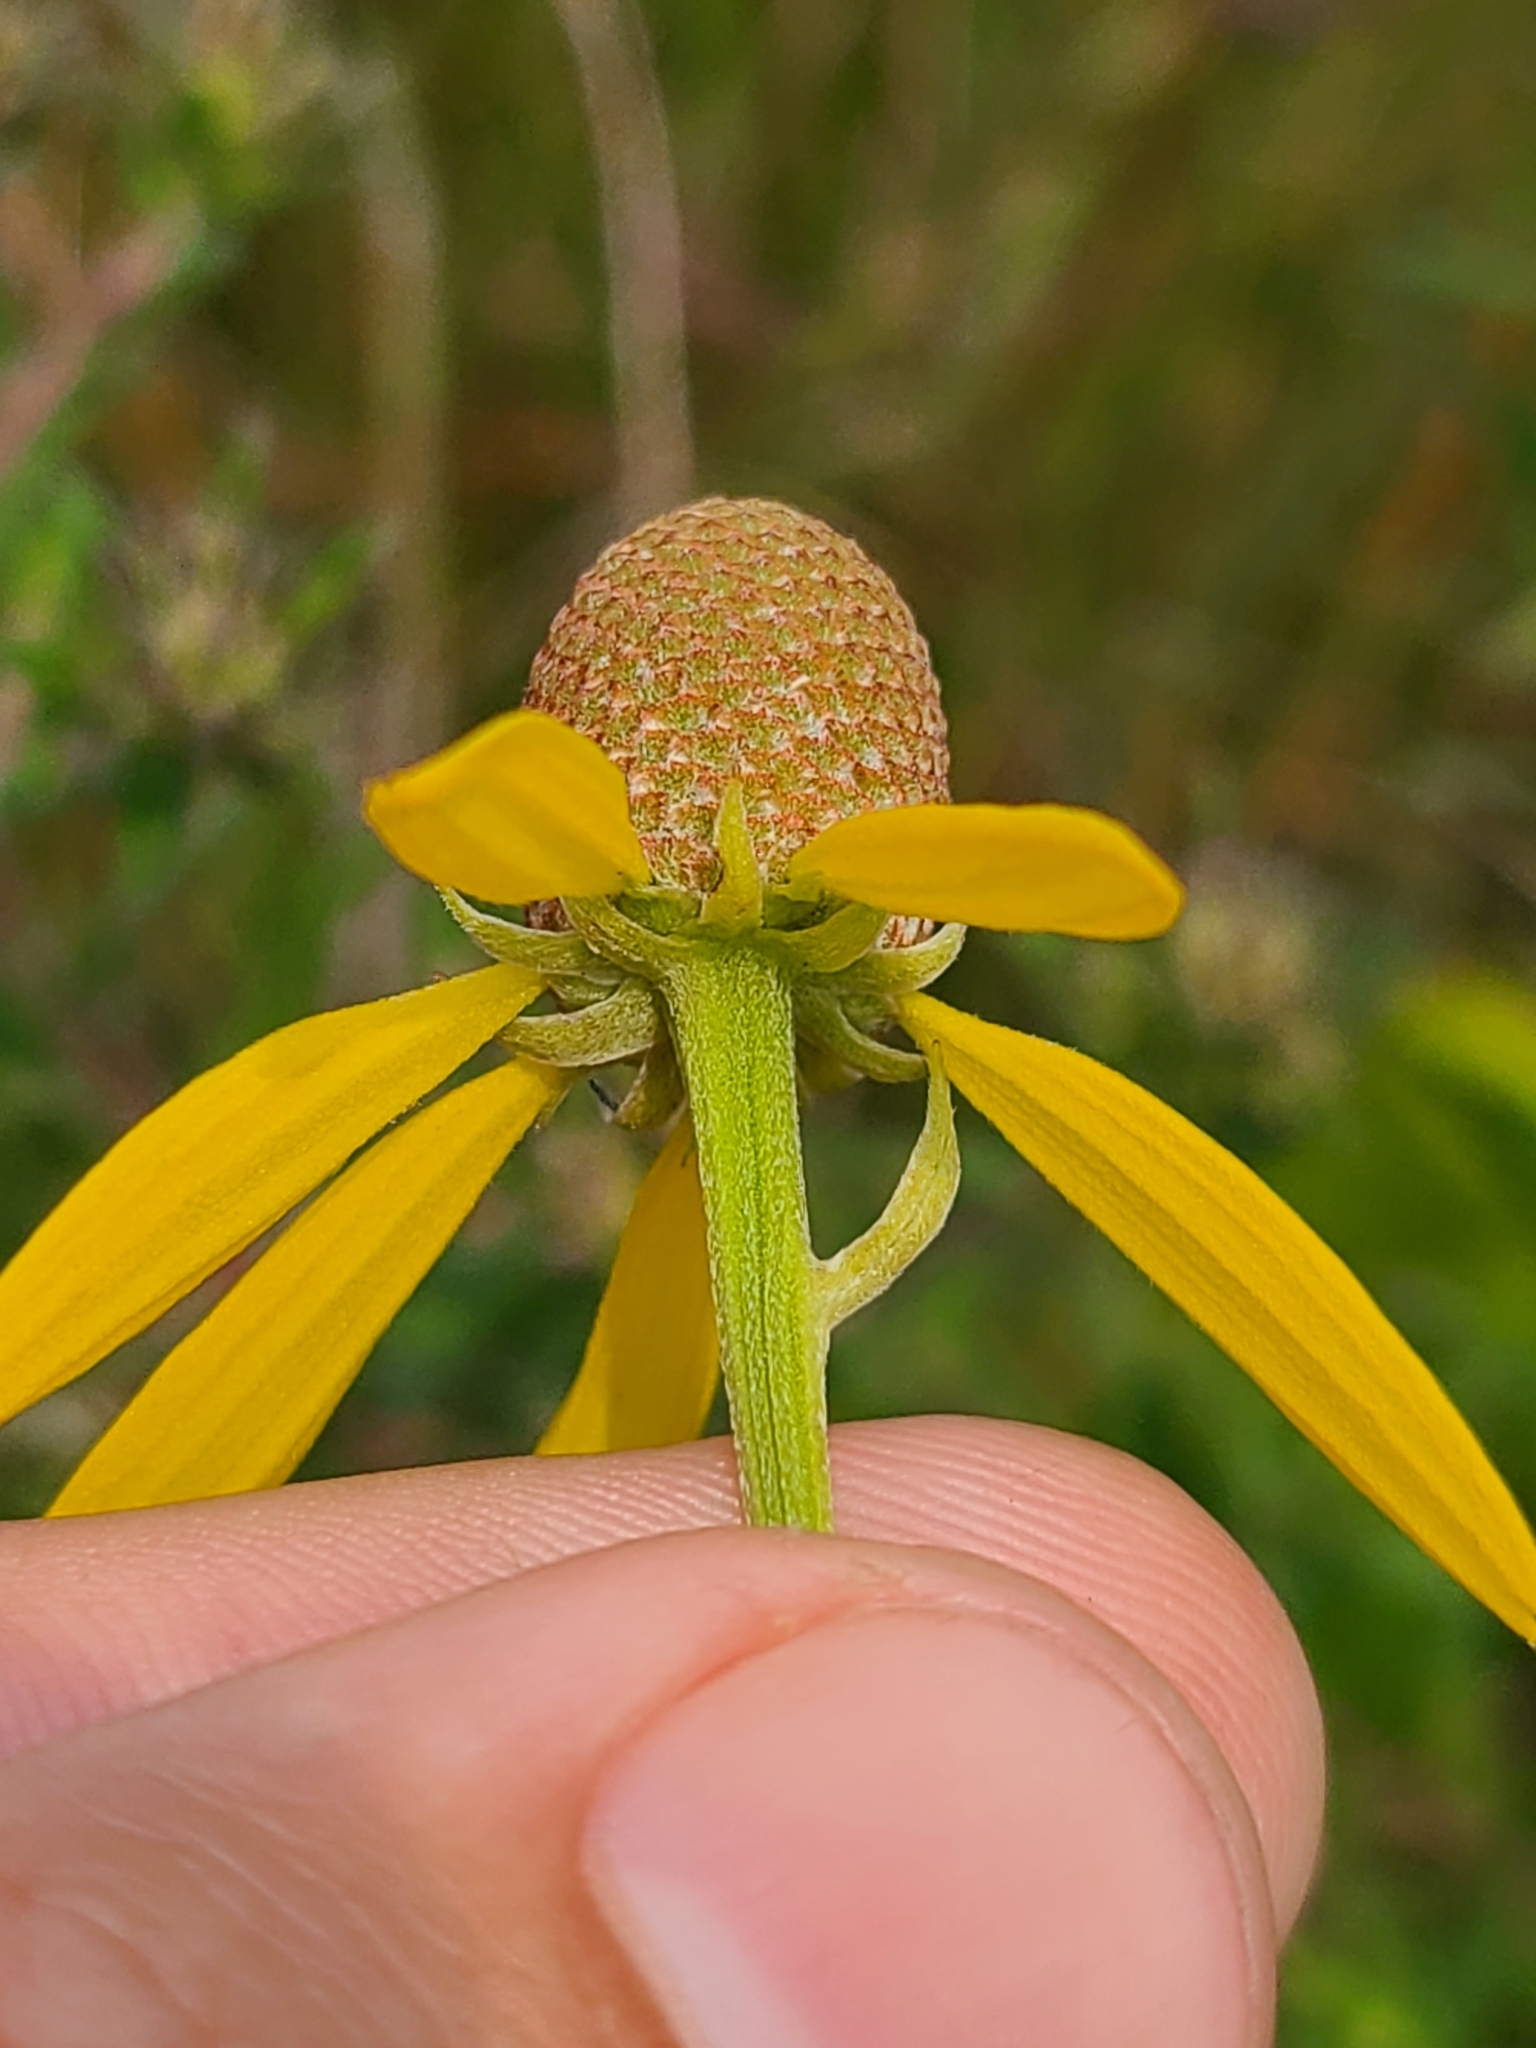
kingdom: Plantae
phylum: Tracheophyta
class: Magnoliopsida
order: Asterales
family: Asteraceae
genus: Ratibida
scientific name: Ratibida pinnata
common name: Drooping prairie-coneflower
